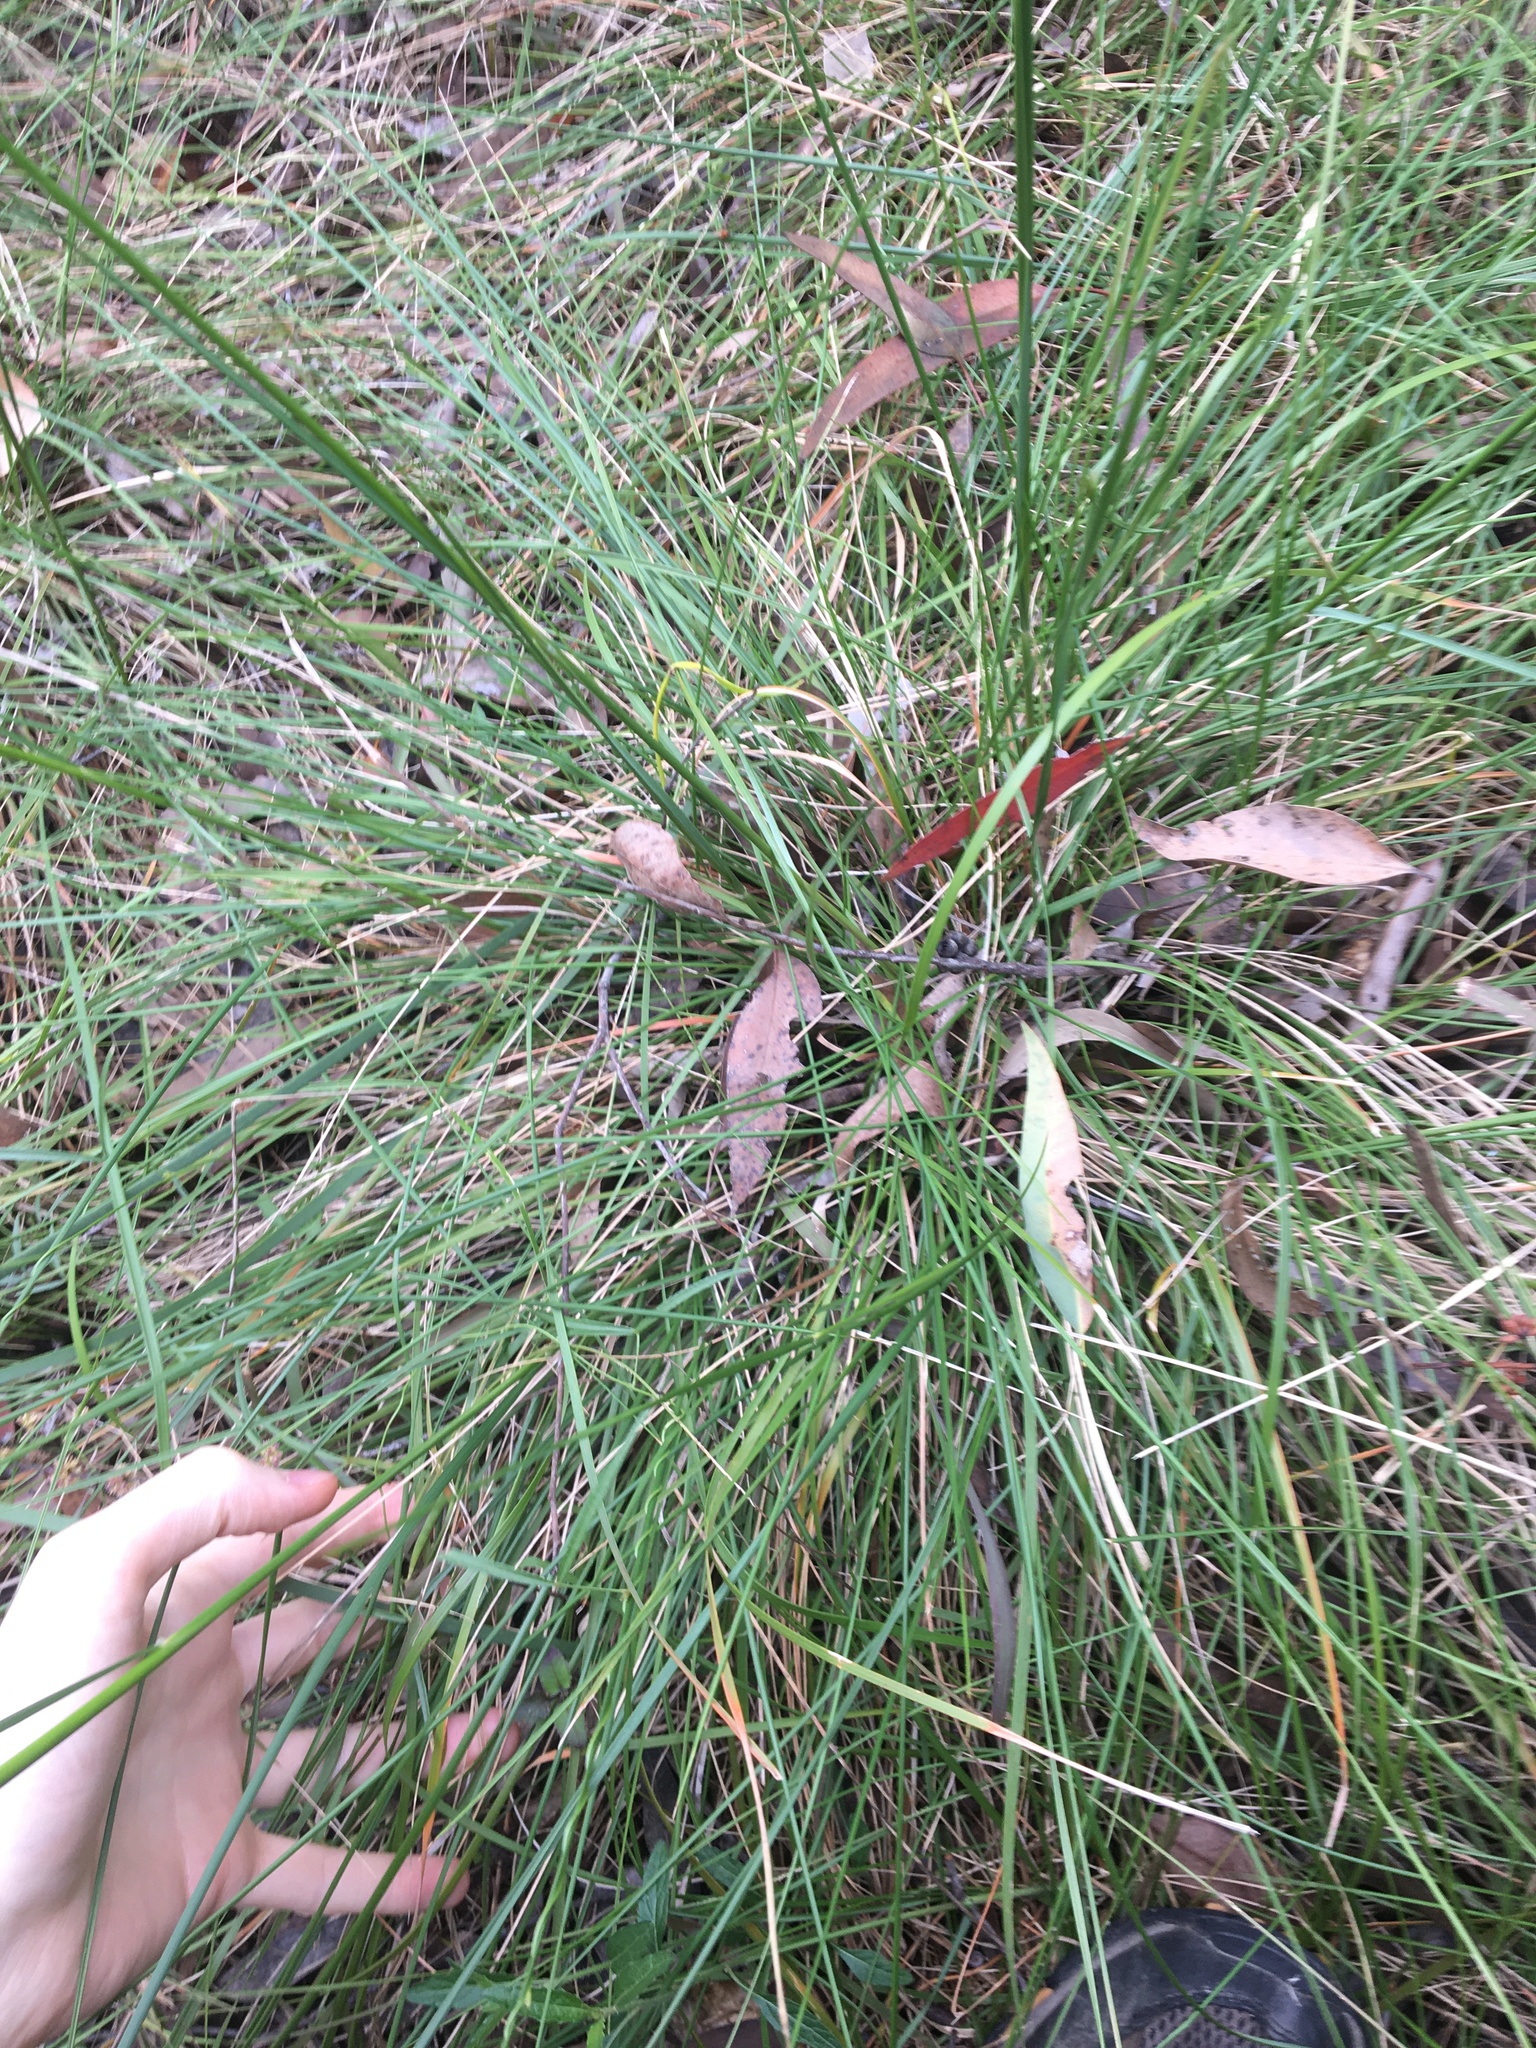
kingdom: Plantae
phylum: Tracheophyta
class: Liliopsida
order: Poales
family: Poaceae
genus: Austrostipa
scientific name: Austrostipa rudis
